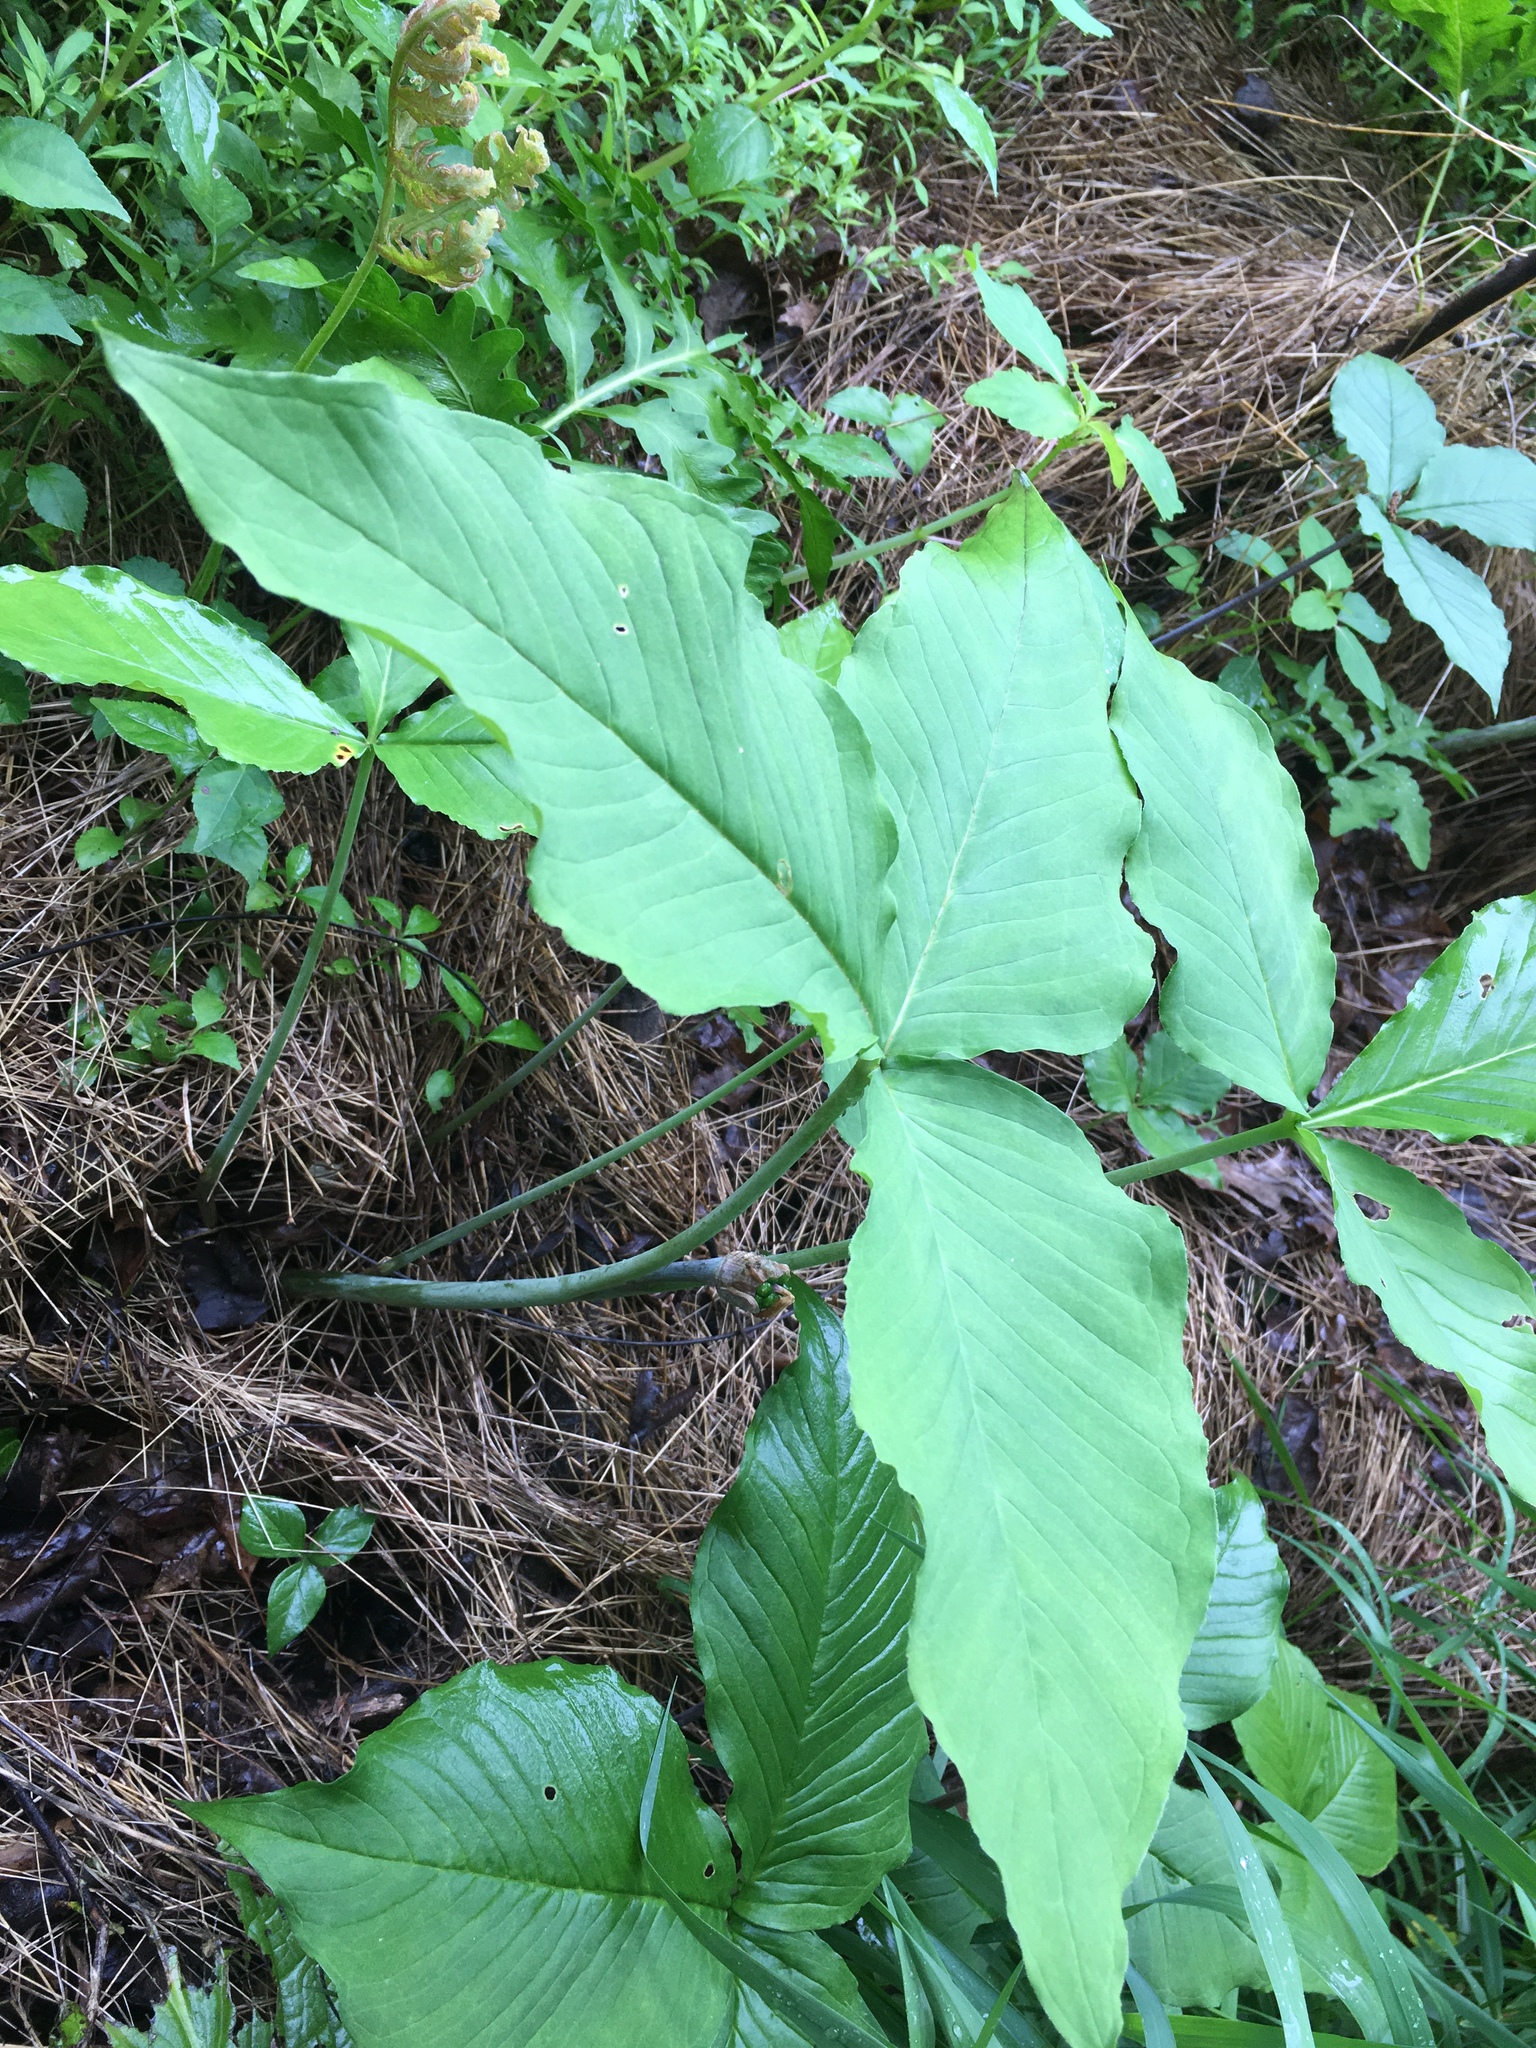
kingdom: Plantae
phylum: Tracheophyta
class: Liliopsida
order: Alismatales
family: Araceae
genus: Arisaema
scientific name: Arisaema triphyllum
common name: Jack-in-the-pulpit
